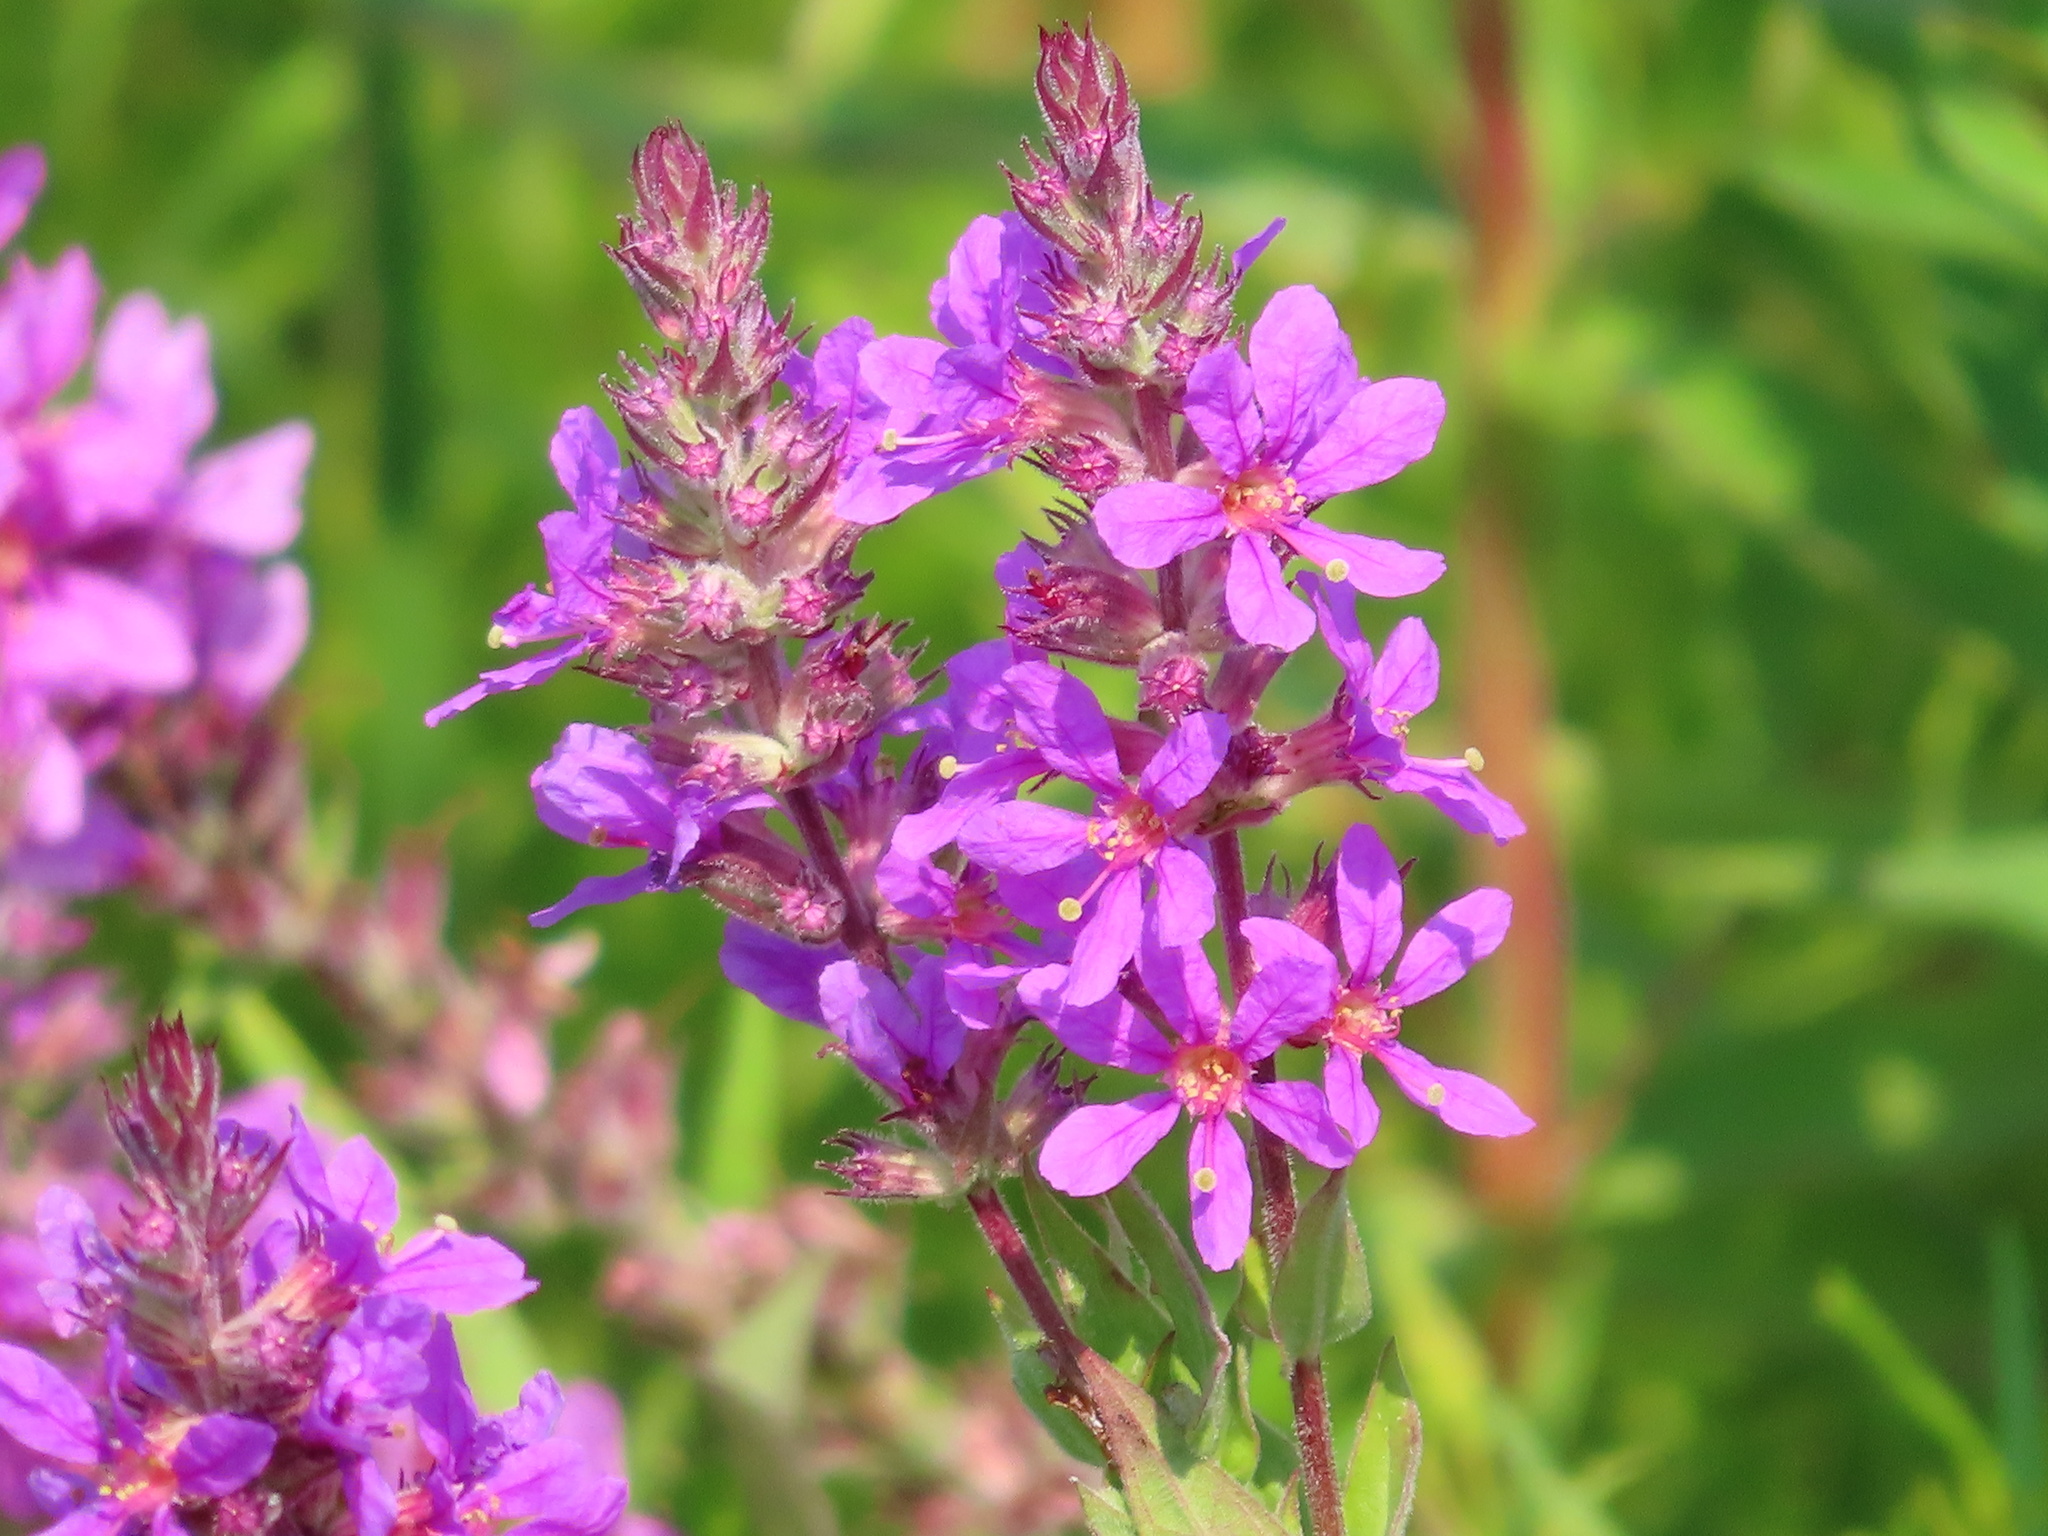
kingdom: Plantae
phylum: Tracheophyta
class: Magnoliopsida
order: Myrtales
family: Lythraceae
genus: Lythrum
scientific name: Lythrum salicaria
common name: Purple loosestrife
